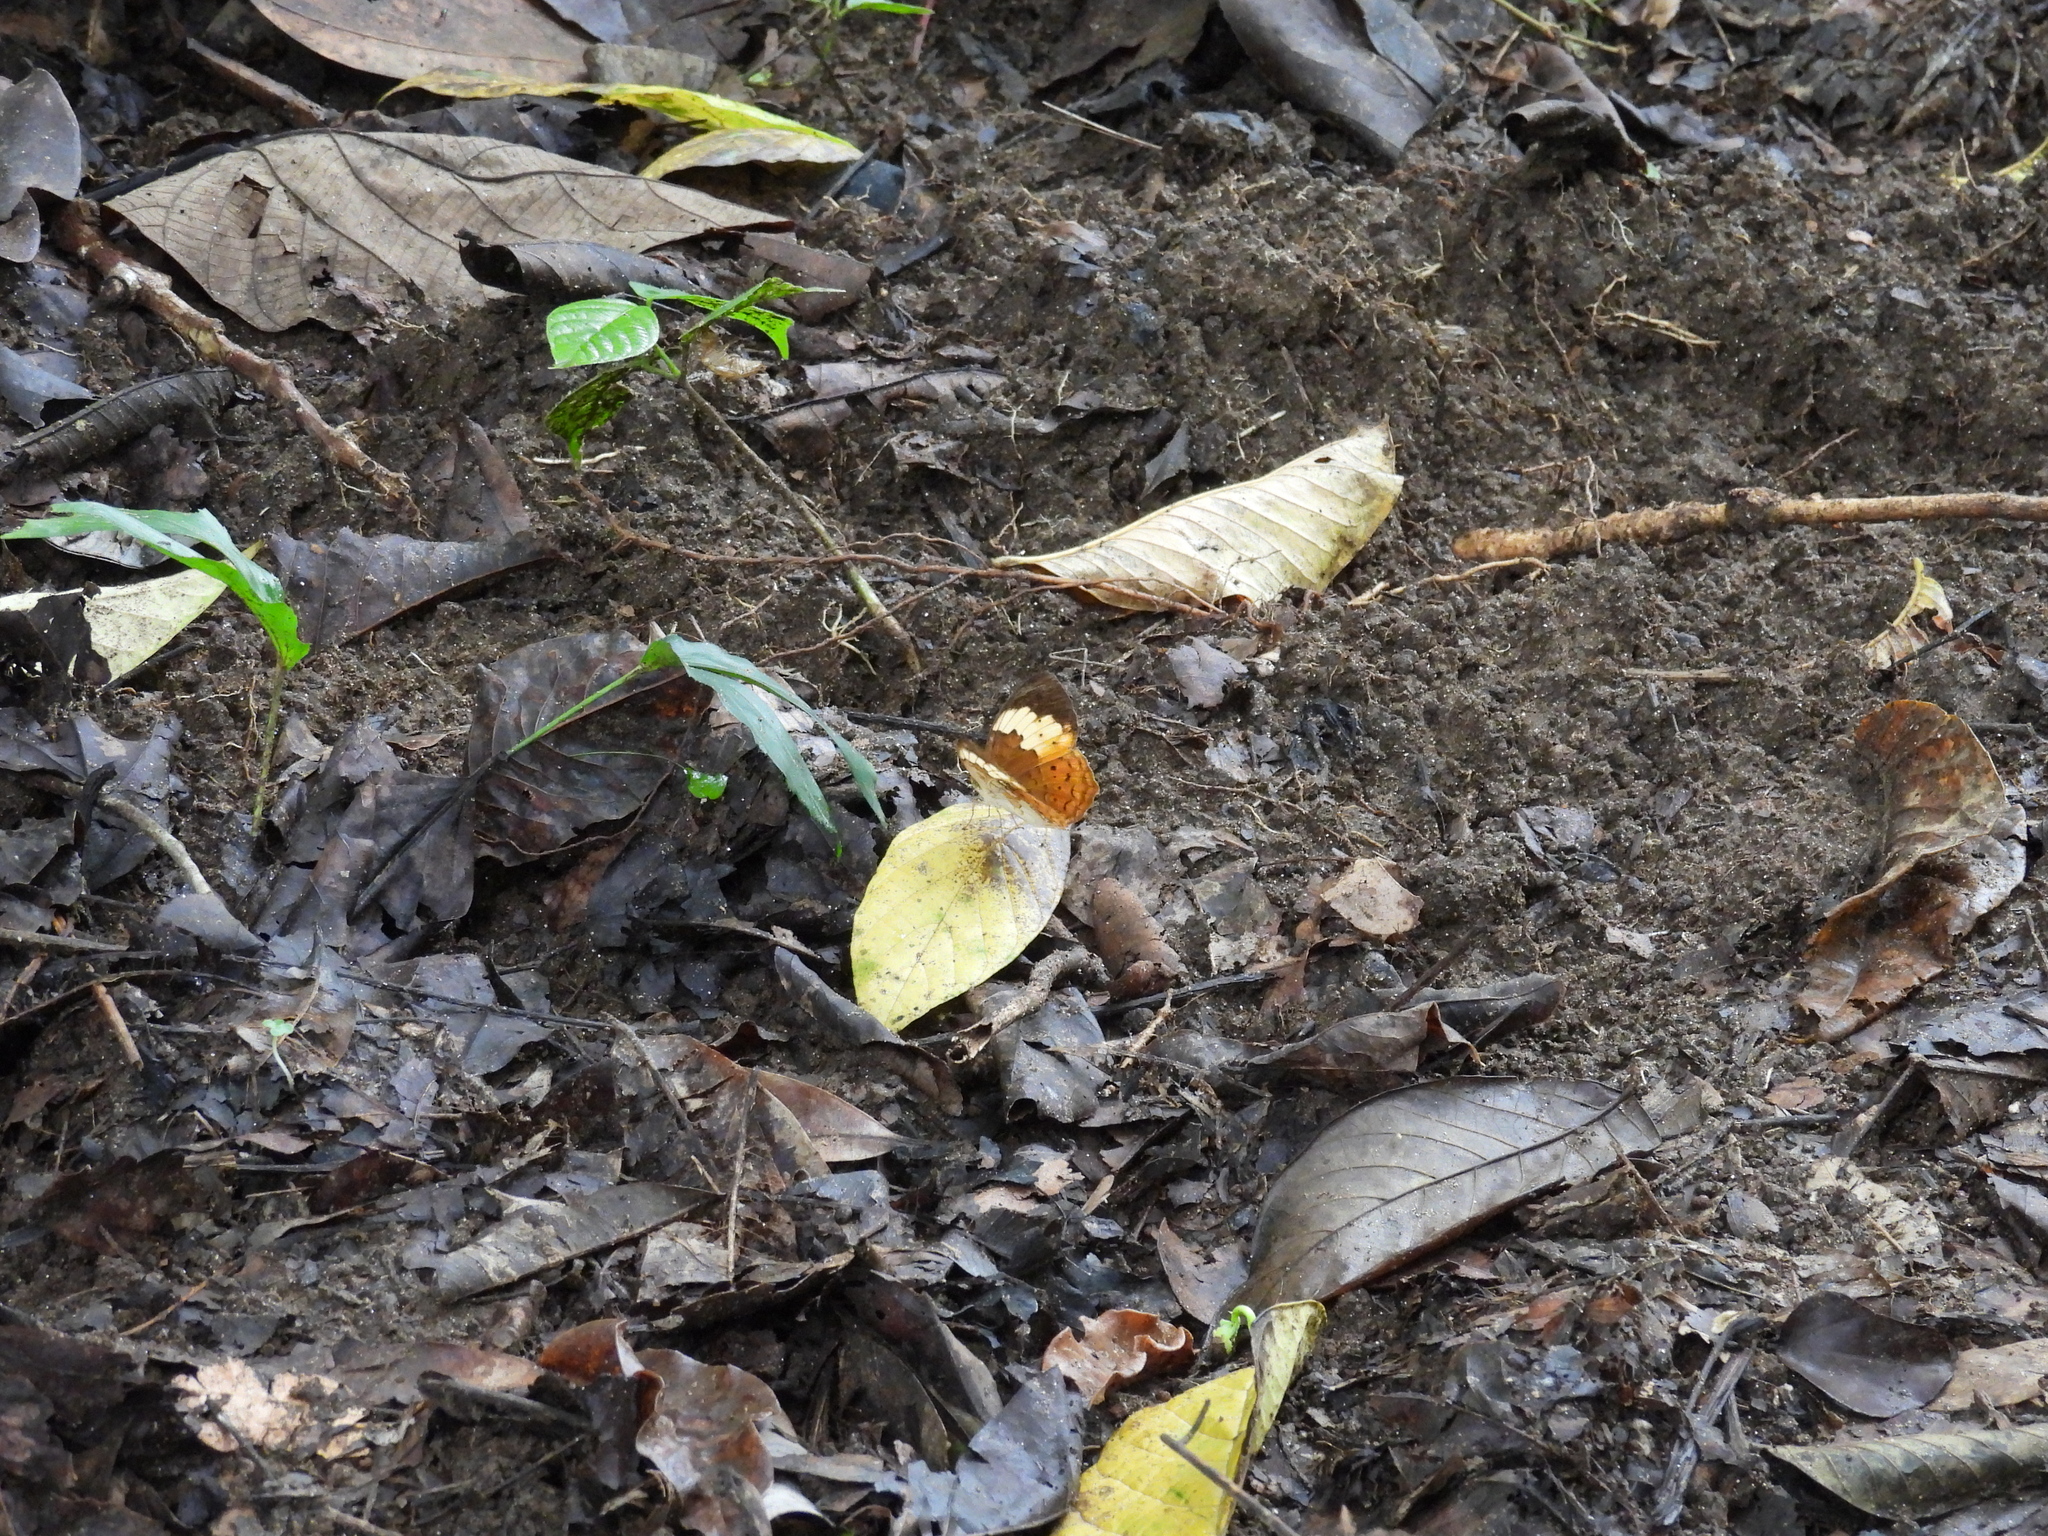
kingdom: Animalia
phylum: Arthropoda
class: Insecta
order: Lepidoptera
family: Nymphalidae
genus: Cupha
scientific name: Cupha erymanthis
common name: Rustic
